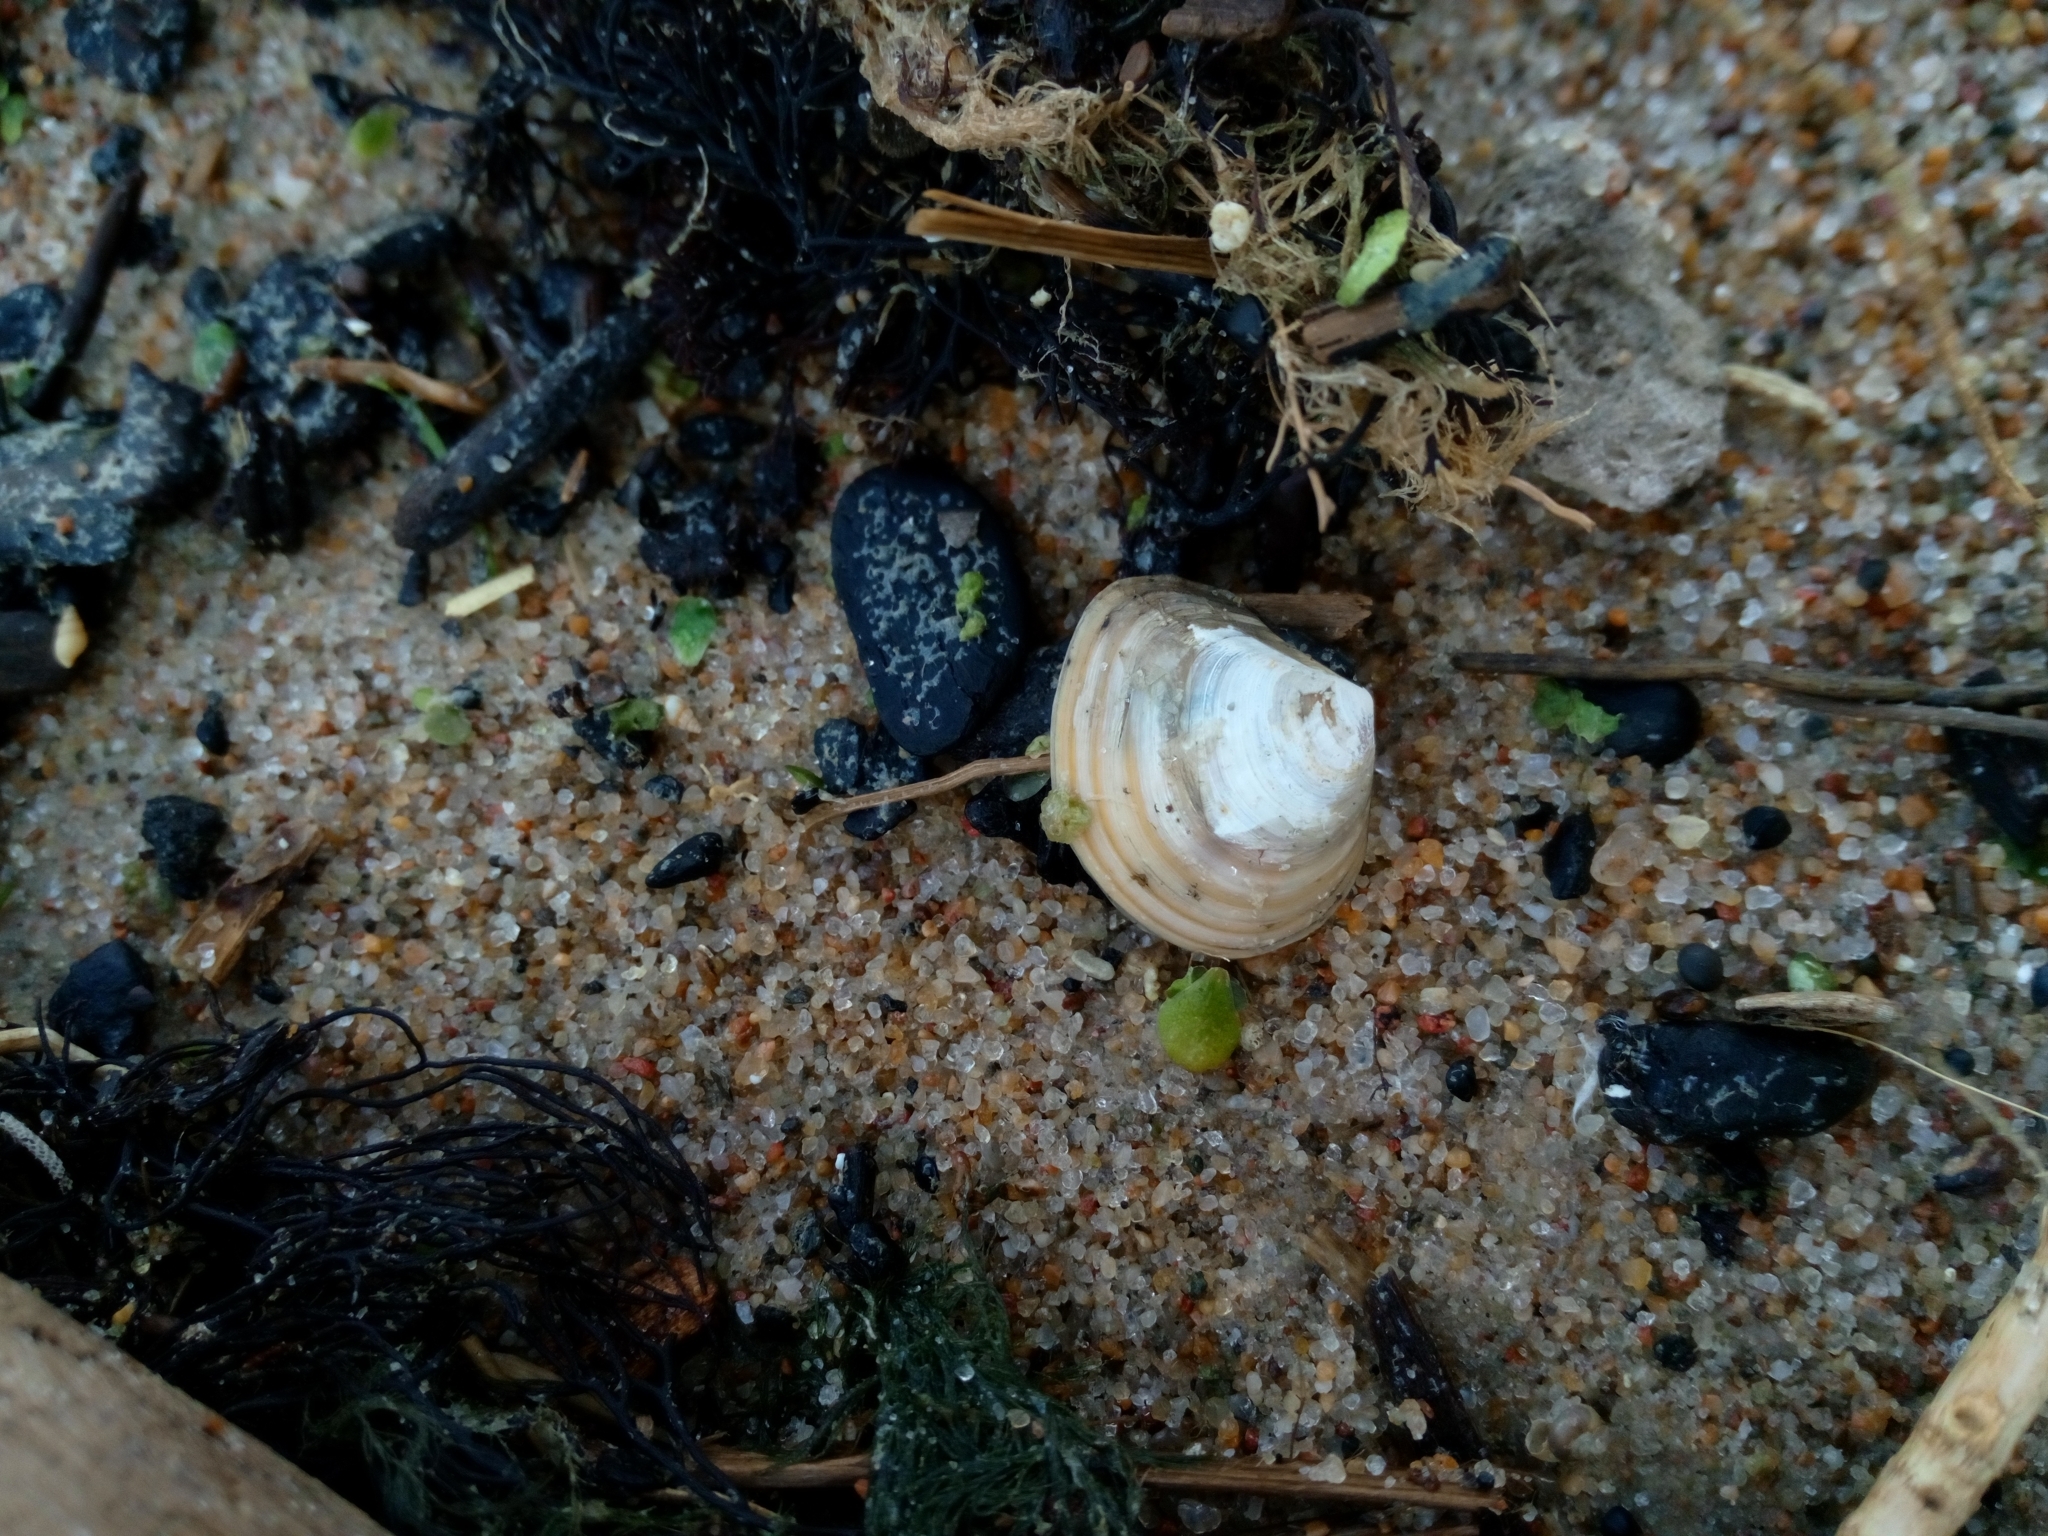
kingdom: Animalia
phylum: Mollusca
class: Bivalvia
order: Cardiida
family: Tellinidae
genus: Macoma
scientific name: Macoma balthica
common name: Baltic tellin
